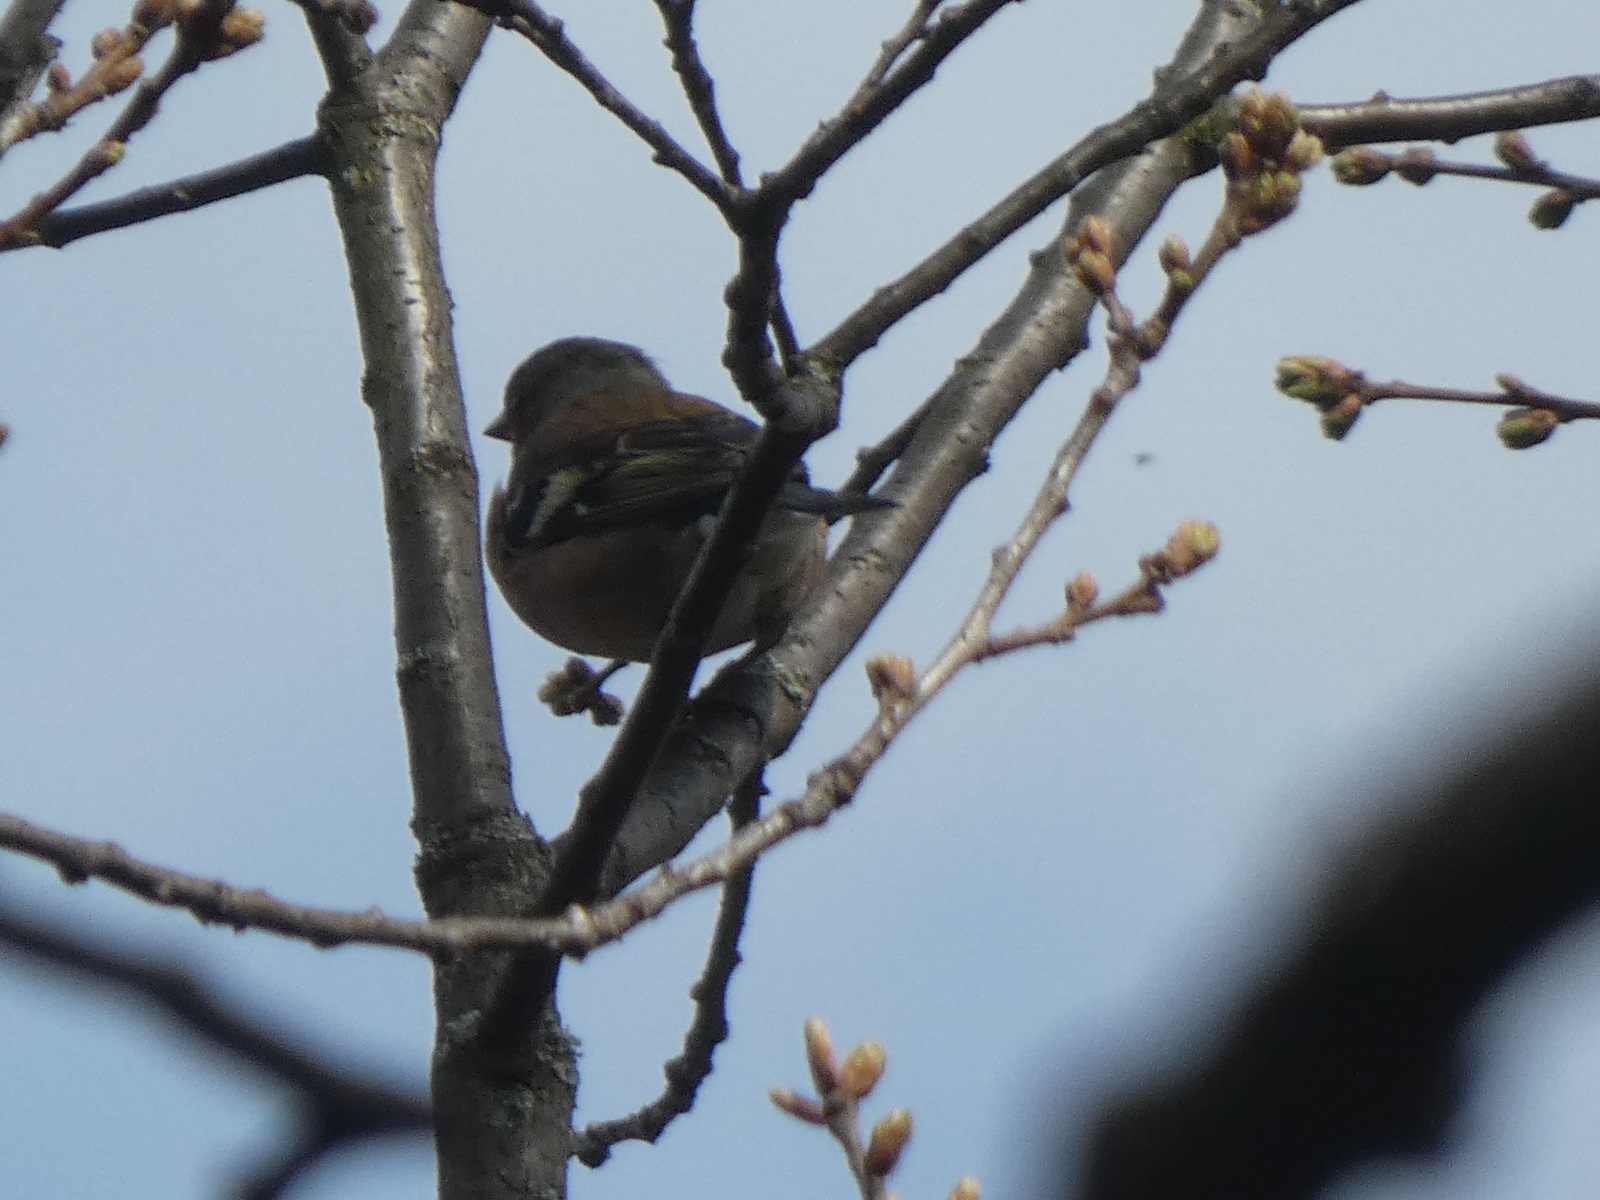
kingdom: Animalia
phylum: Chordata
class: Aves
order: Passeriformes
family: Fringillidae
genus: Fringilla
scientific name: Fringilla coelebs
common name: Common chaffinch
